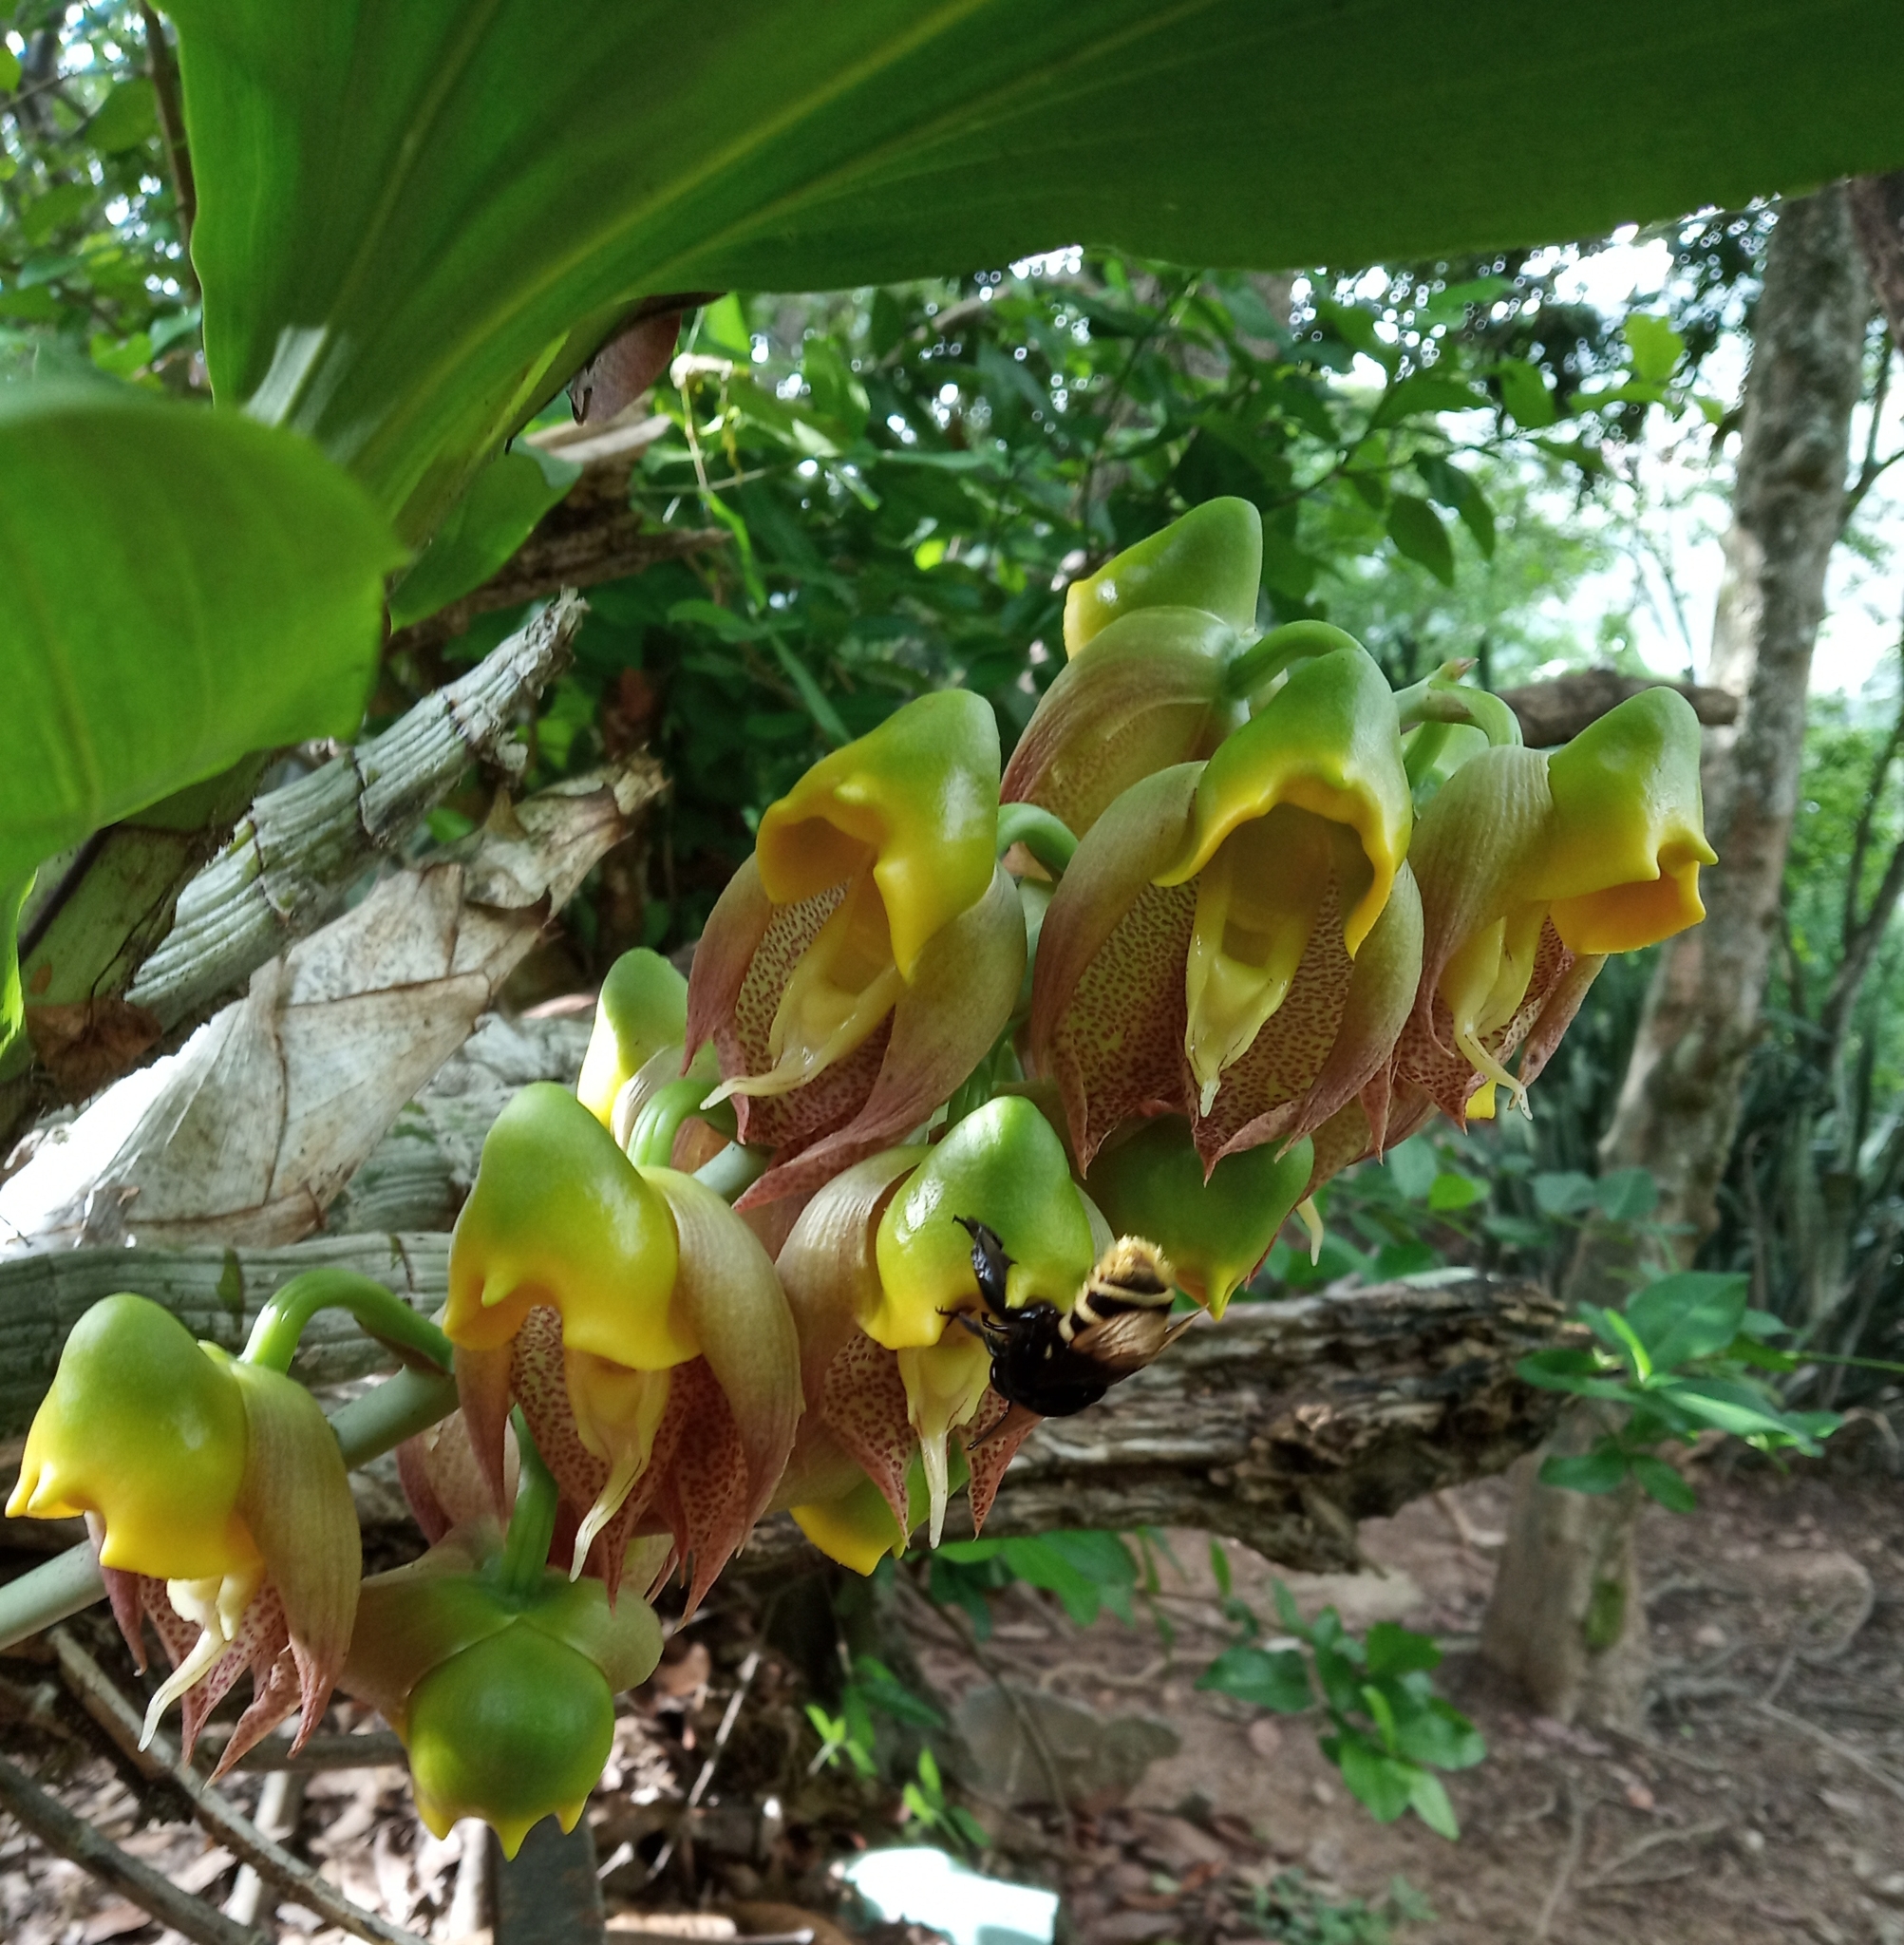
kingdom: Plantae
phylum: Tracheophyta
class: Liliopsida
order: Asparagales
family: Orchidaceae
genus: Catasetum
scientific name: Catasetum macrocarpum
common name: Jumping orchid
